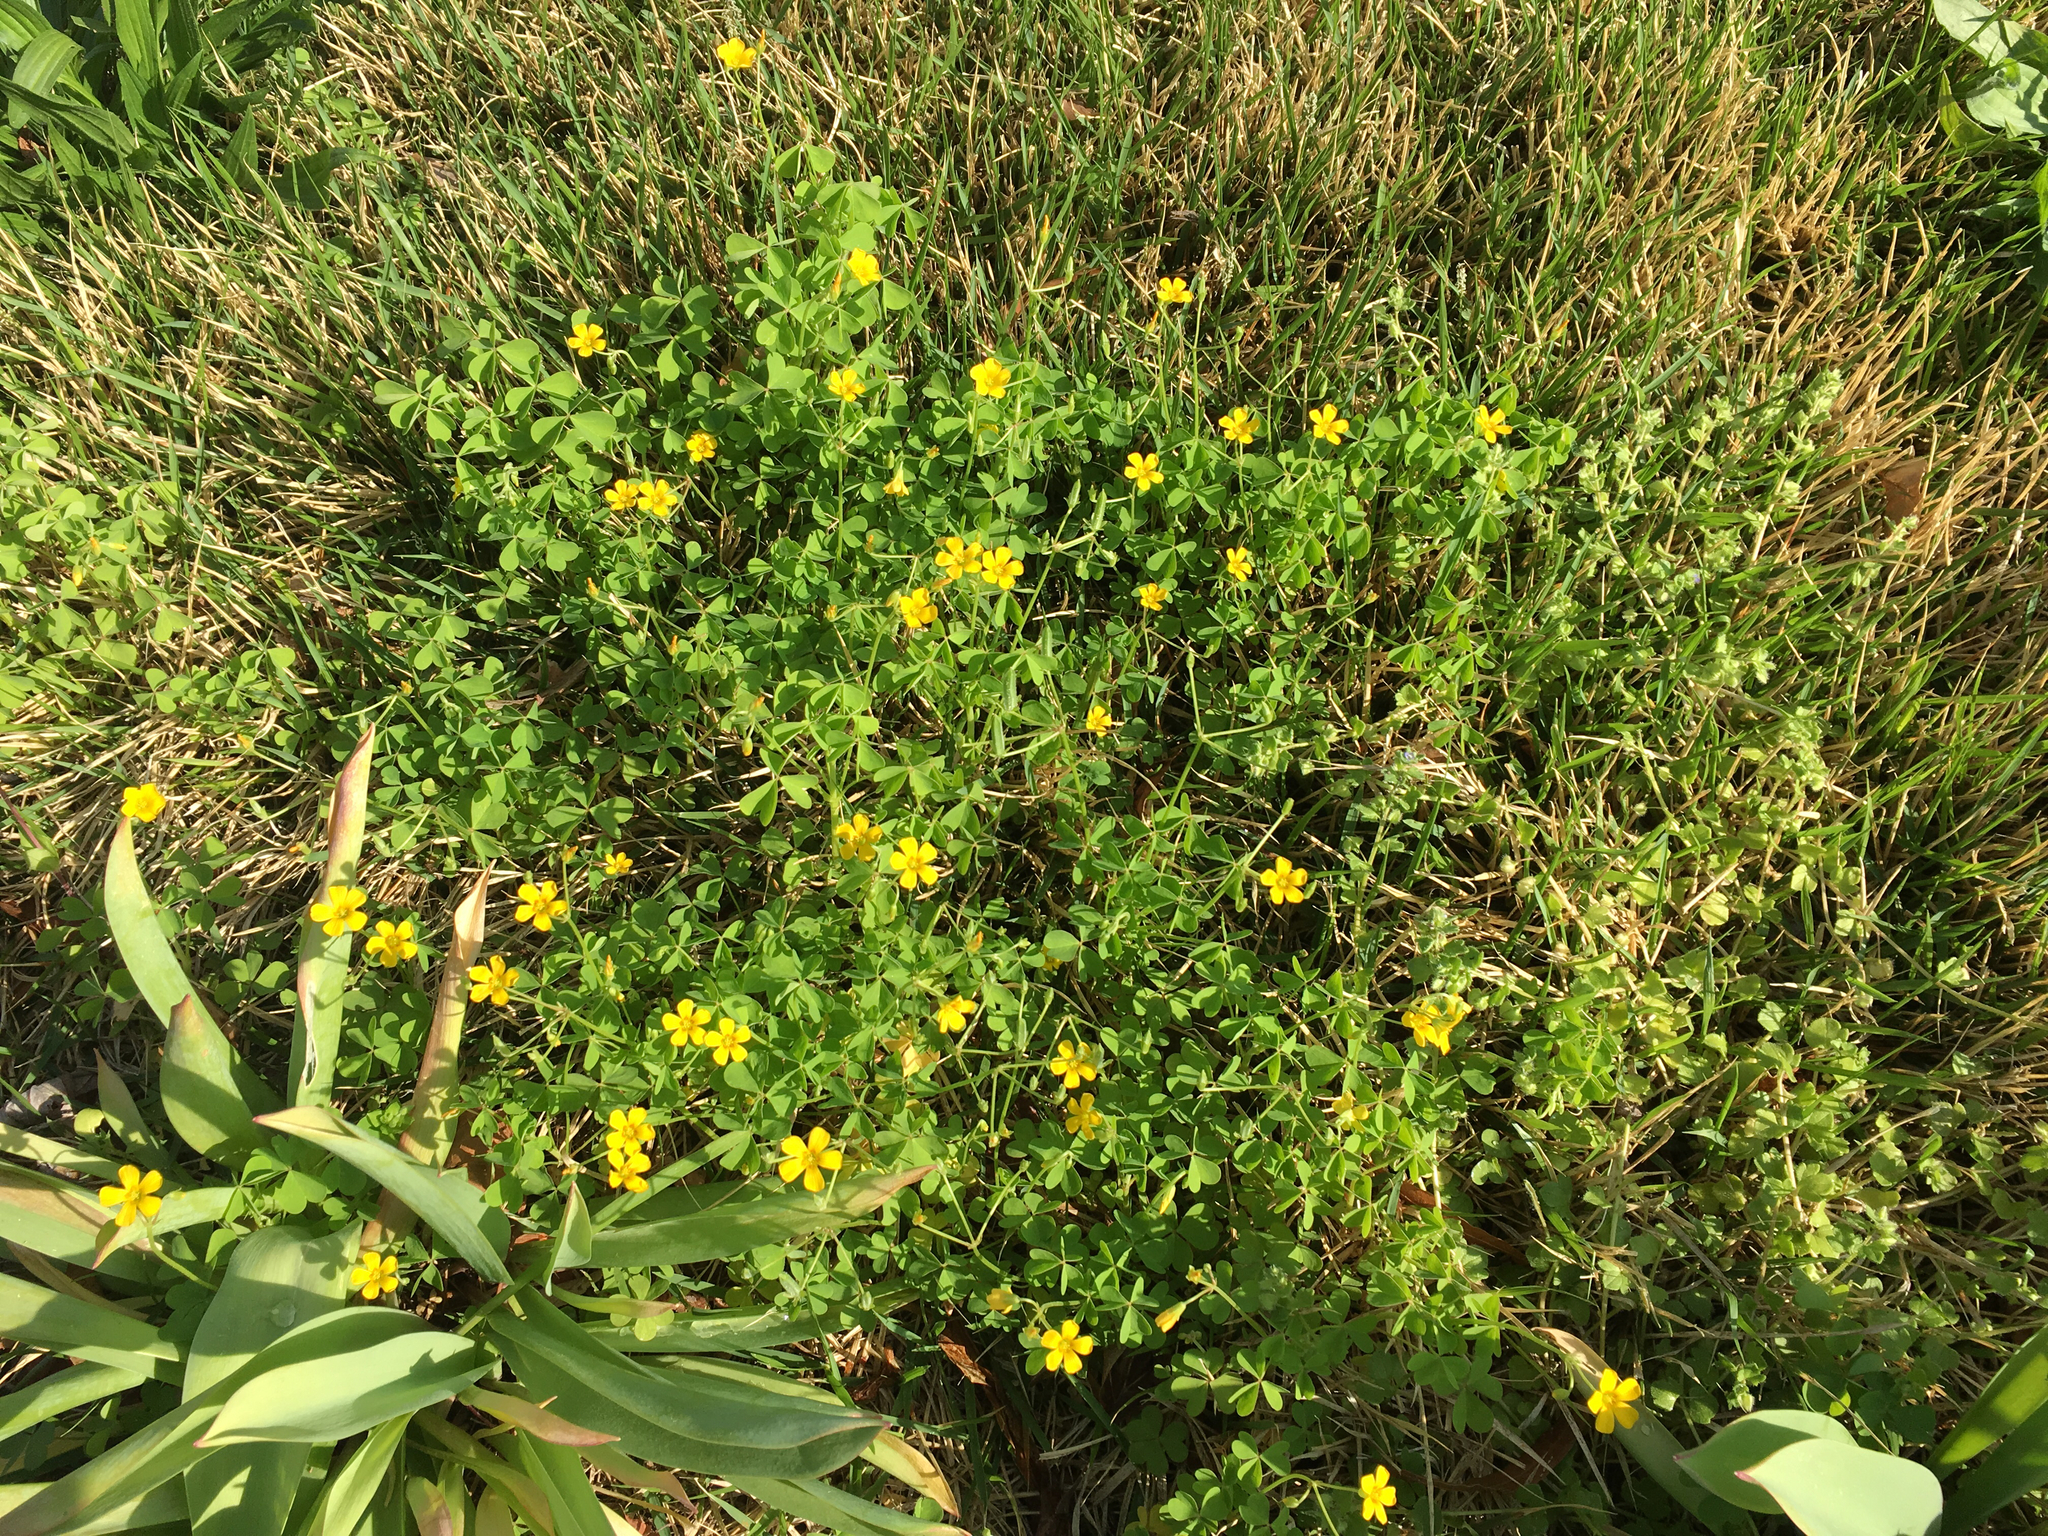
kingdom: Plantae
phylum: Tracheophyta
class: Magnoliopsida
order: Oxalidales
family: Oxalidaceae
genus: Oxalis
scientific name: Oxalis corniculata
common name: Procumbent yellow-sorrel
